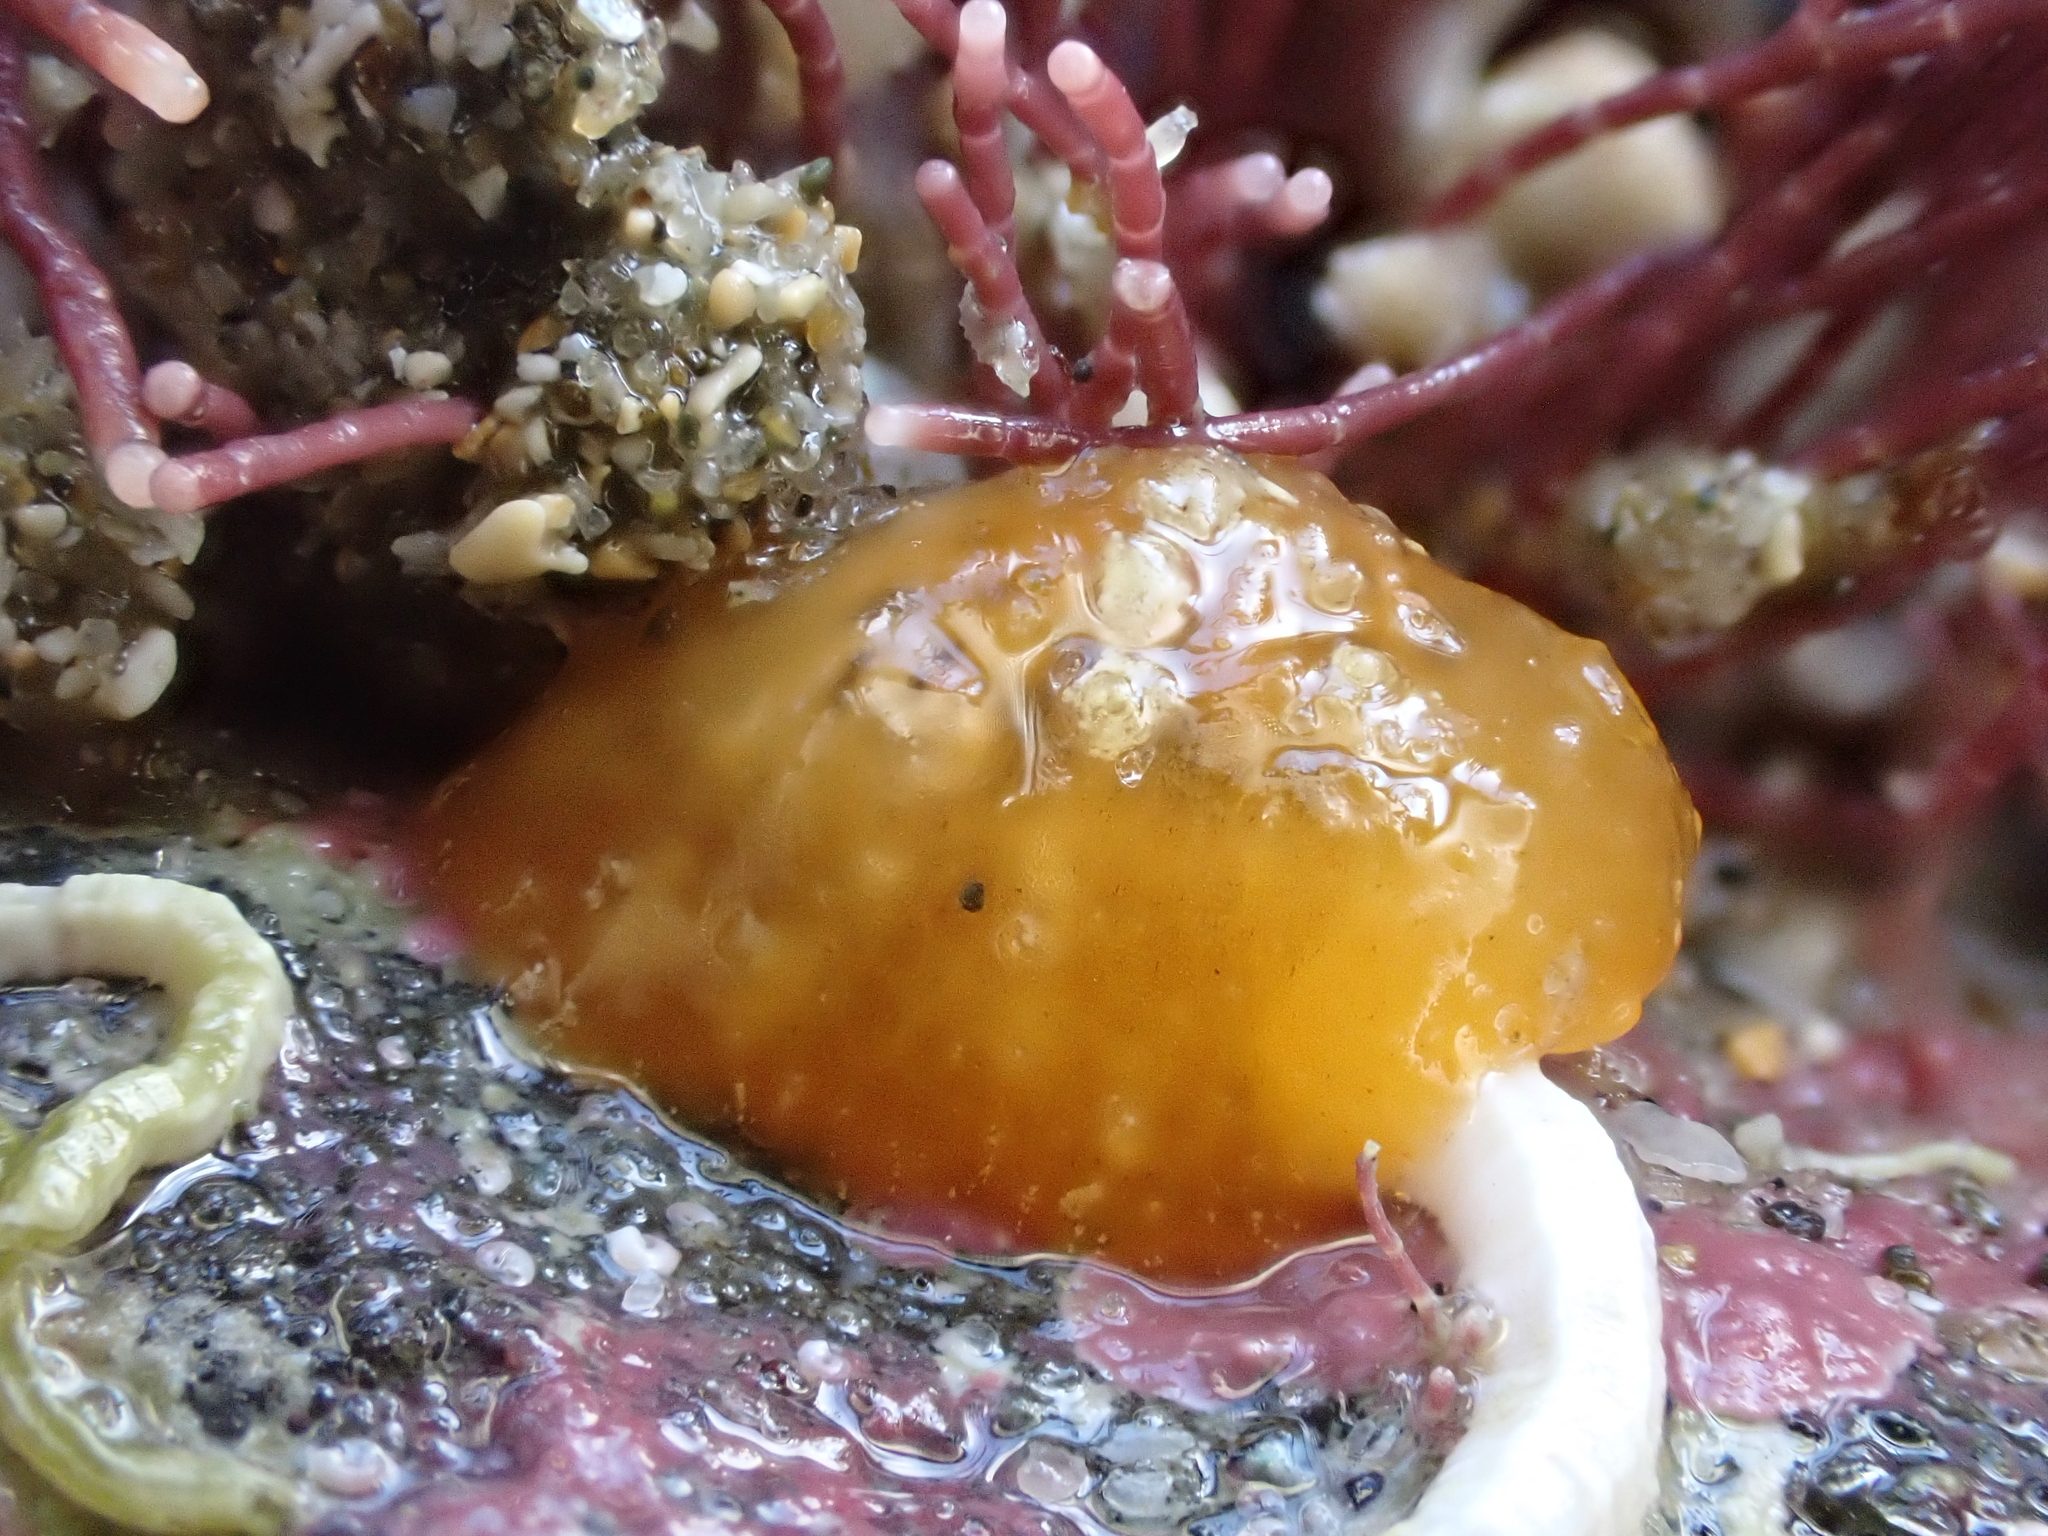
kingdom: Animalia
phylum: Mollusca
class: Gastropoda
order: Littorinimorpha
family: Velutinidae
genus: Lamellaria
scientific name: Lamellaria ophione
